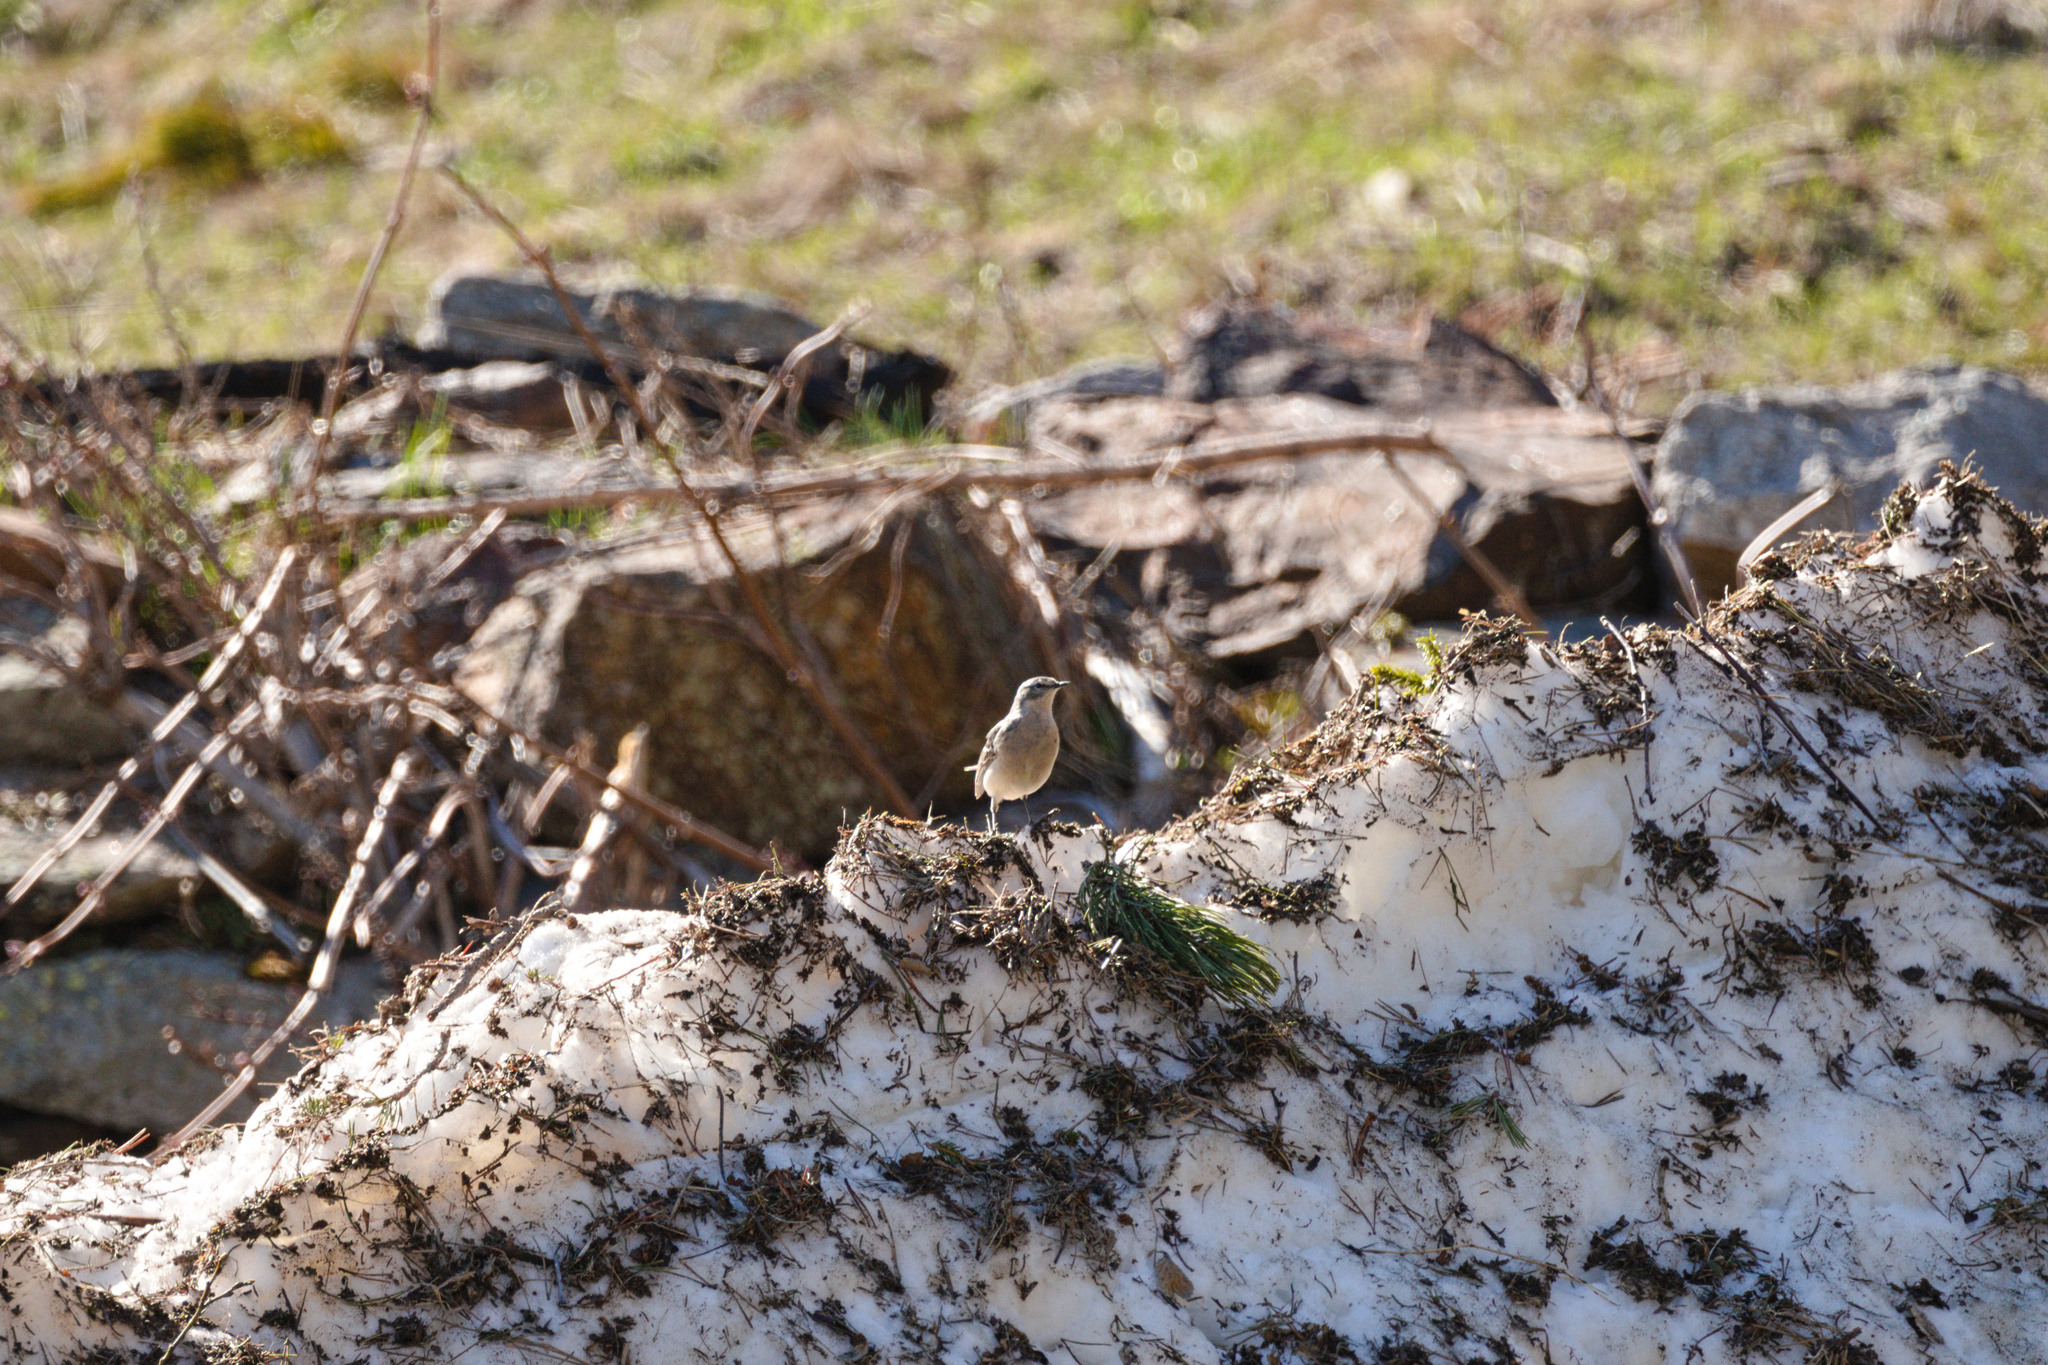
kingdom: Animalia
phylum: Chordata
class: Aves
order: Passeriformes
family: Motacillidae
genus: Anthus
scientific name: Anthus spinoletta
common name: Water pipit
